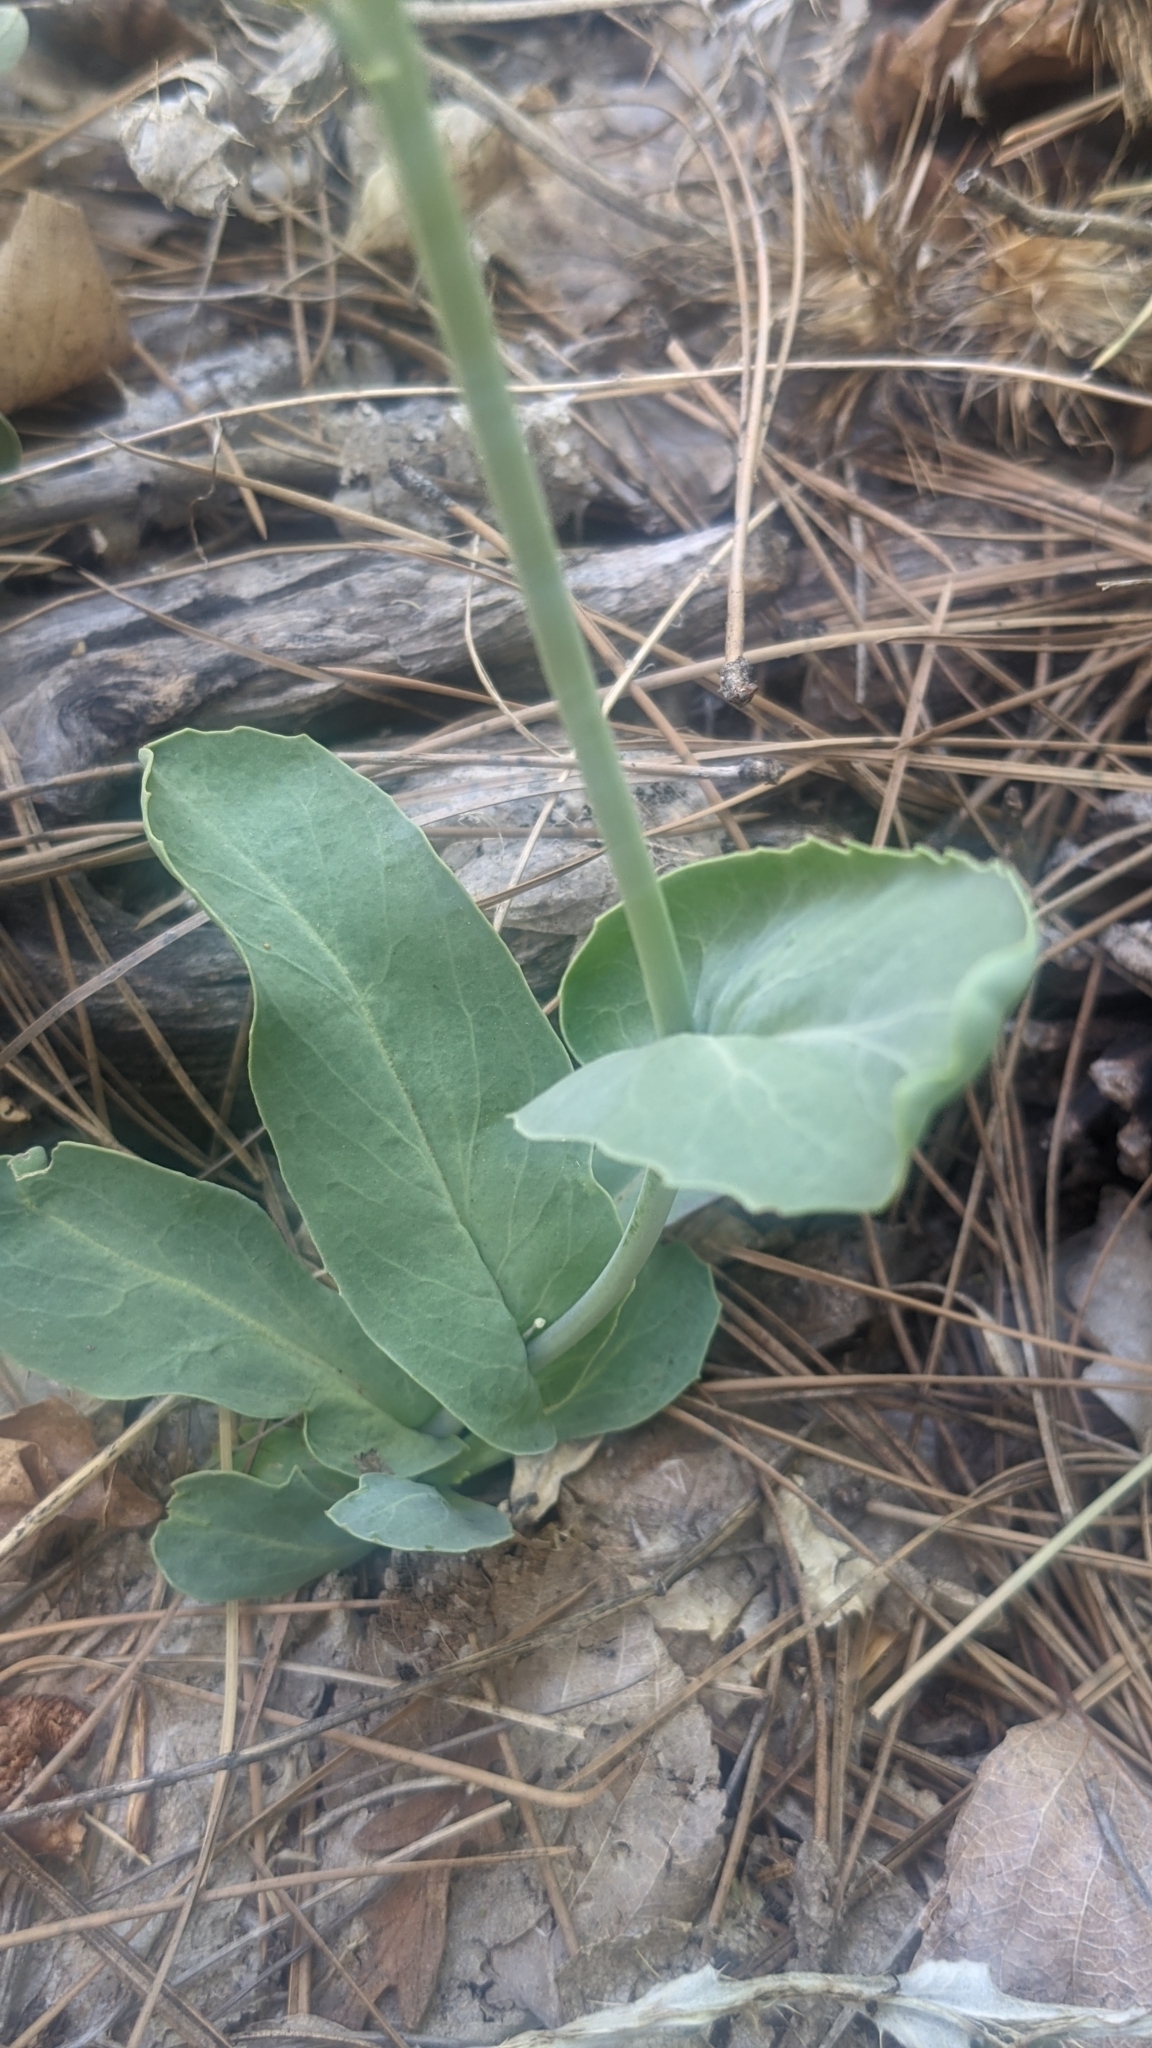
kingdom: Plantae
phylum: Tracheophyta
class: Magnoliopsida
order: Brassicales
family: Brassicaceae
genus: Streptanthus
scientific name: Streptanthus cordatus
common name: Heart-leaf jewel-flower
